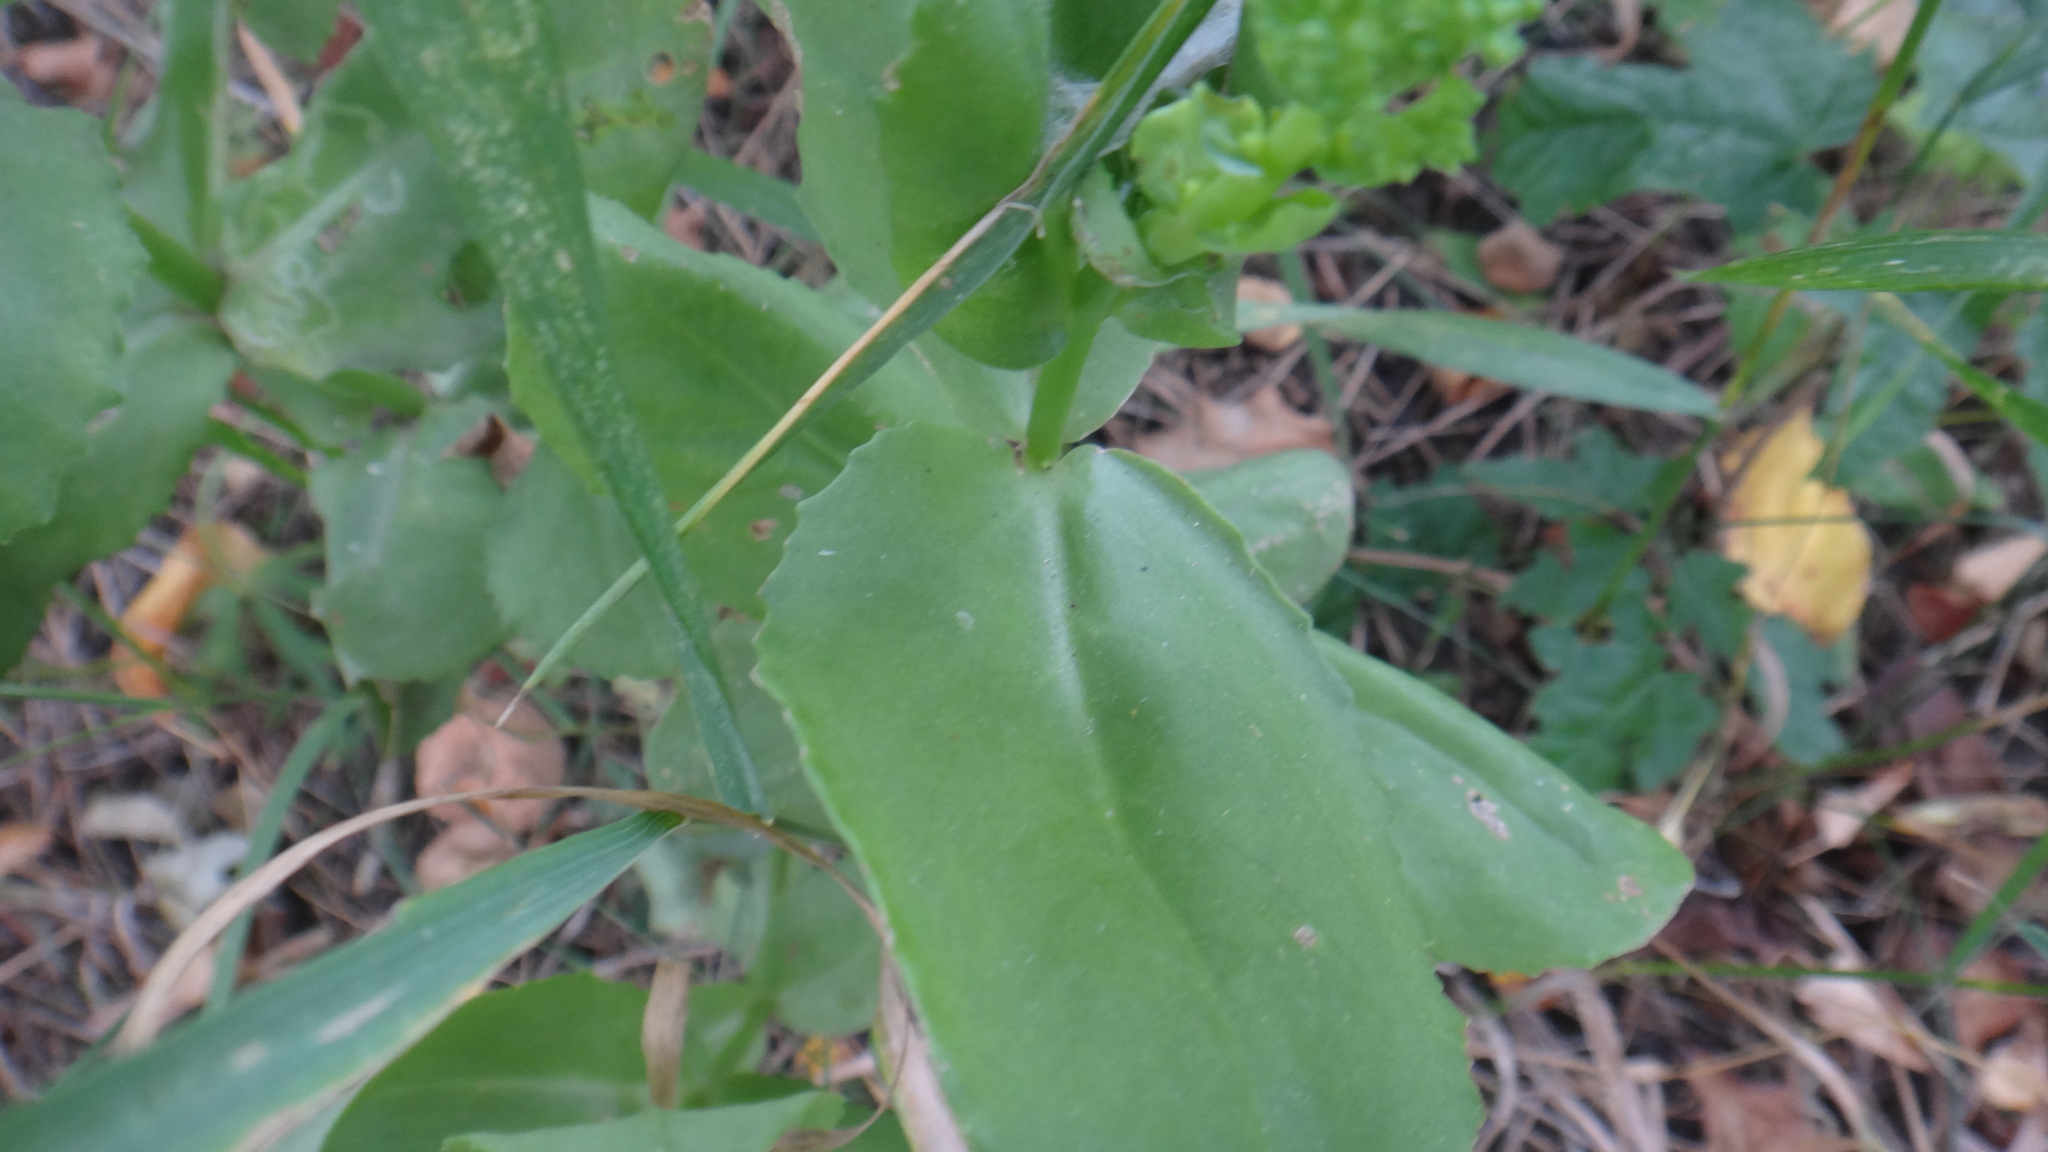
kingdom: Plantae
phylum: Tracheophyta
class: Magnoliopsida
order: Saxifragales
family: Crassulaceae
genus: Hylotelephium
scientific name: Hylotelephium maximum
